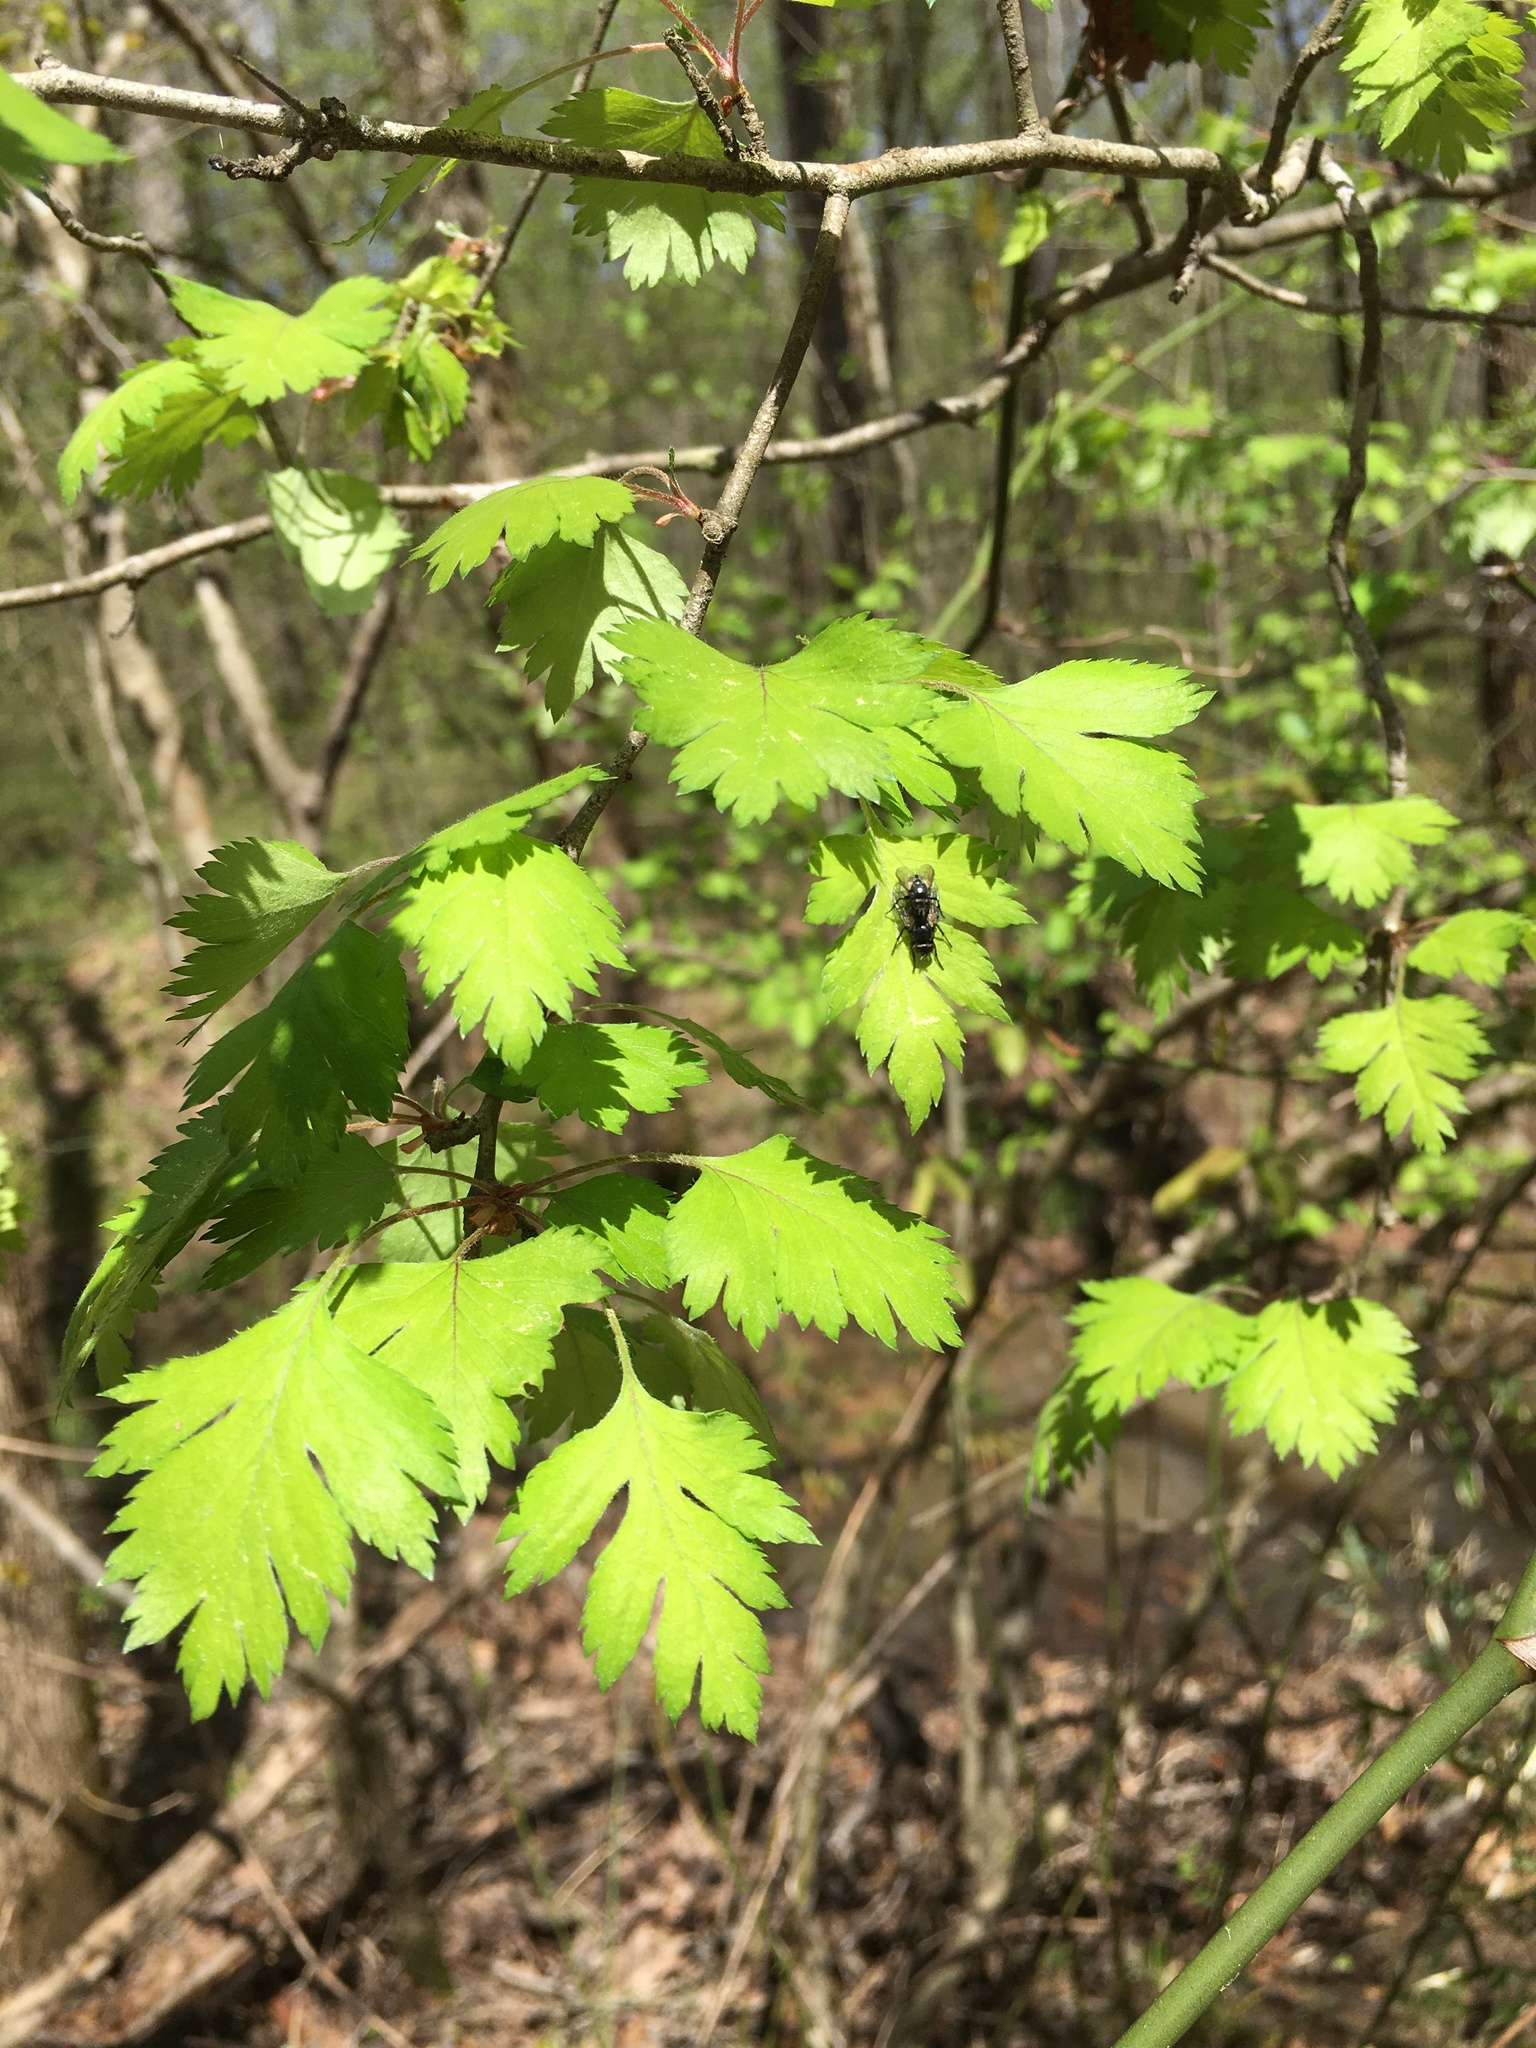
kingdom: Plantae
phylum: Tracheophyta
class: Magnoliopsida
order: Rosales
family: Rosaceae
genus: Crataegus
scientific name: Crataegus marshallii
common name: Parsley-hawthorn
